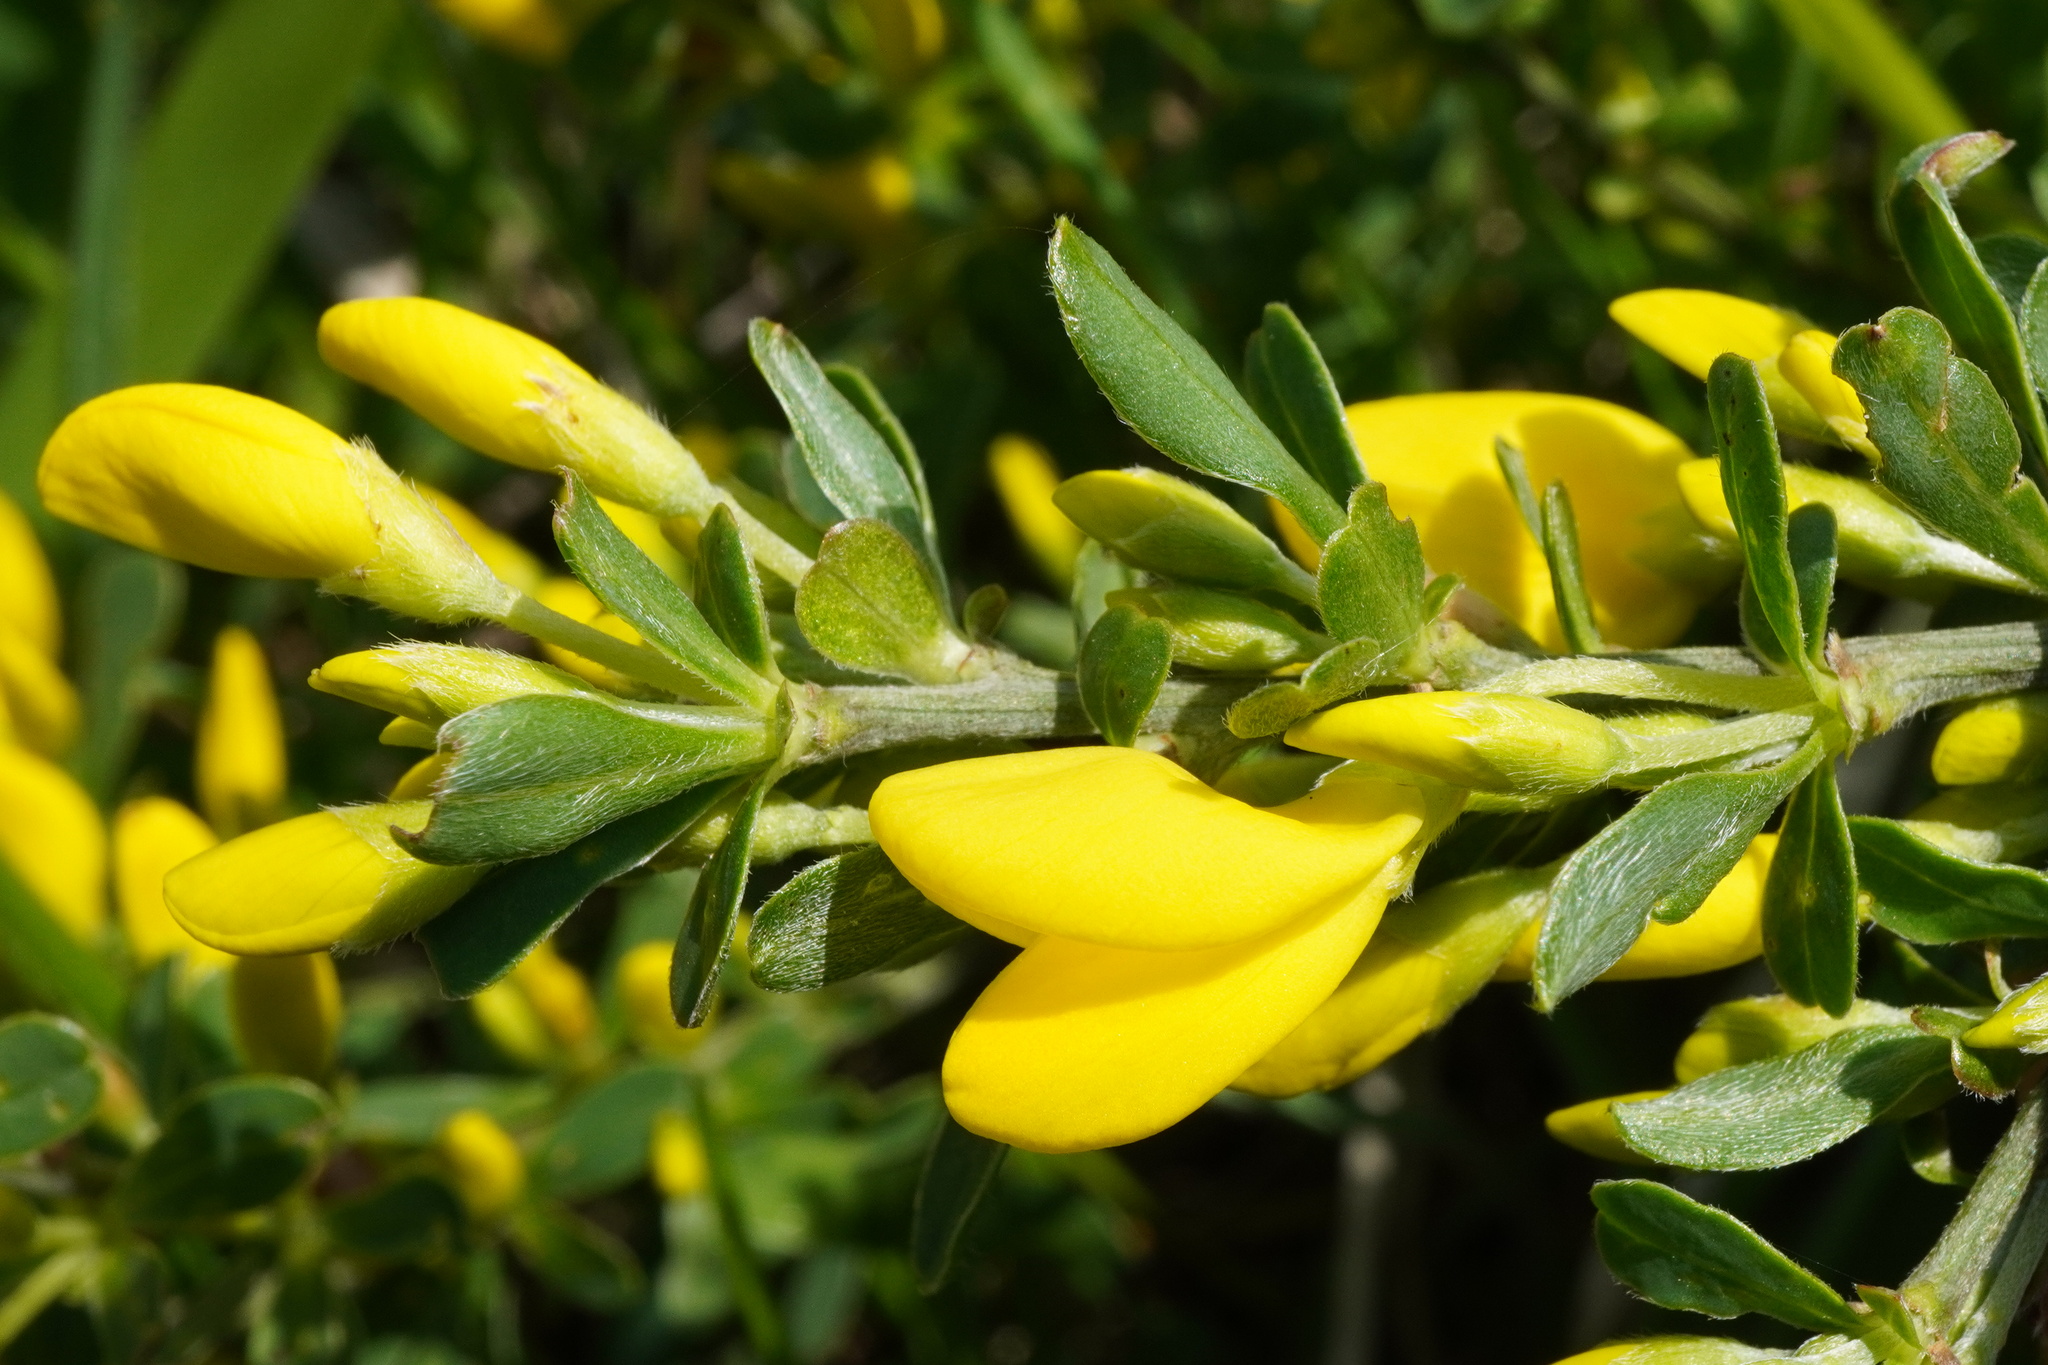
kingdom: Plantae
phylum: Tracheophyta
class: Magnoliopsida
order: Fabales
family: Fabaceae
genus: Cytisus
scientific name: Cytisus procumbens
